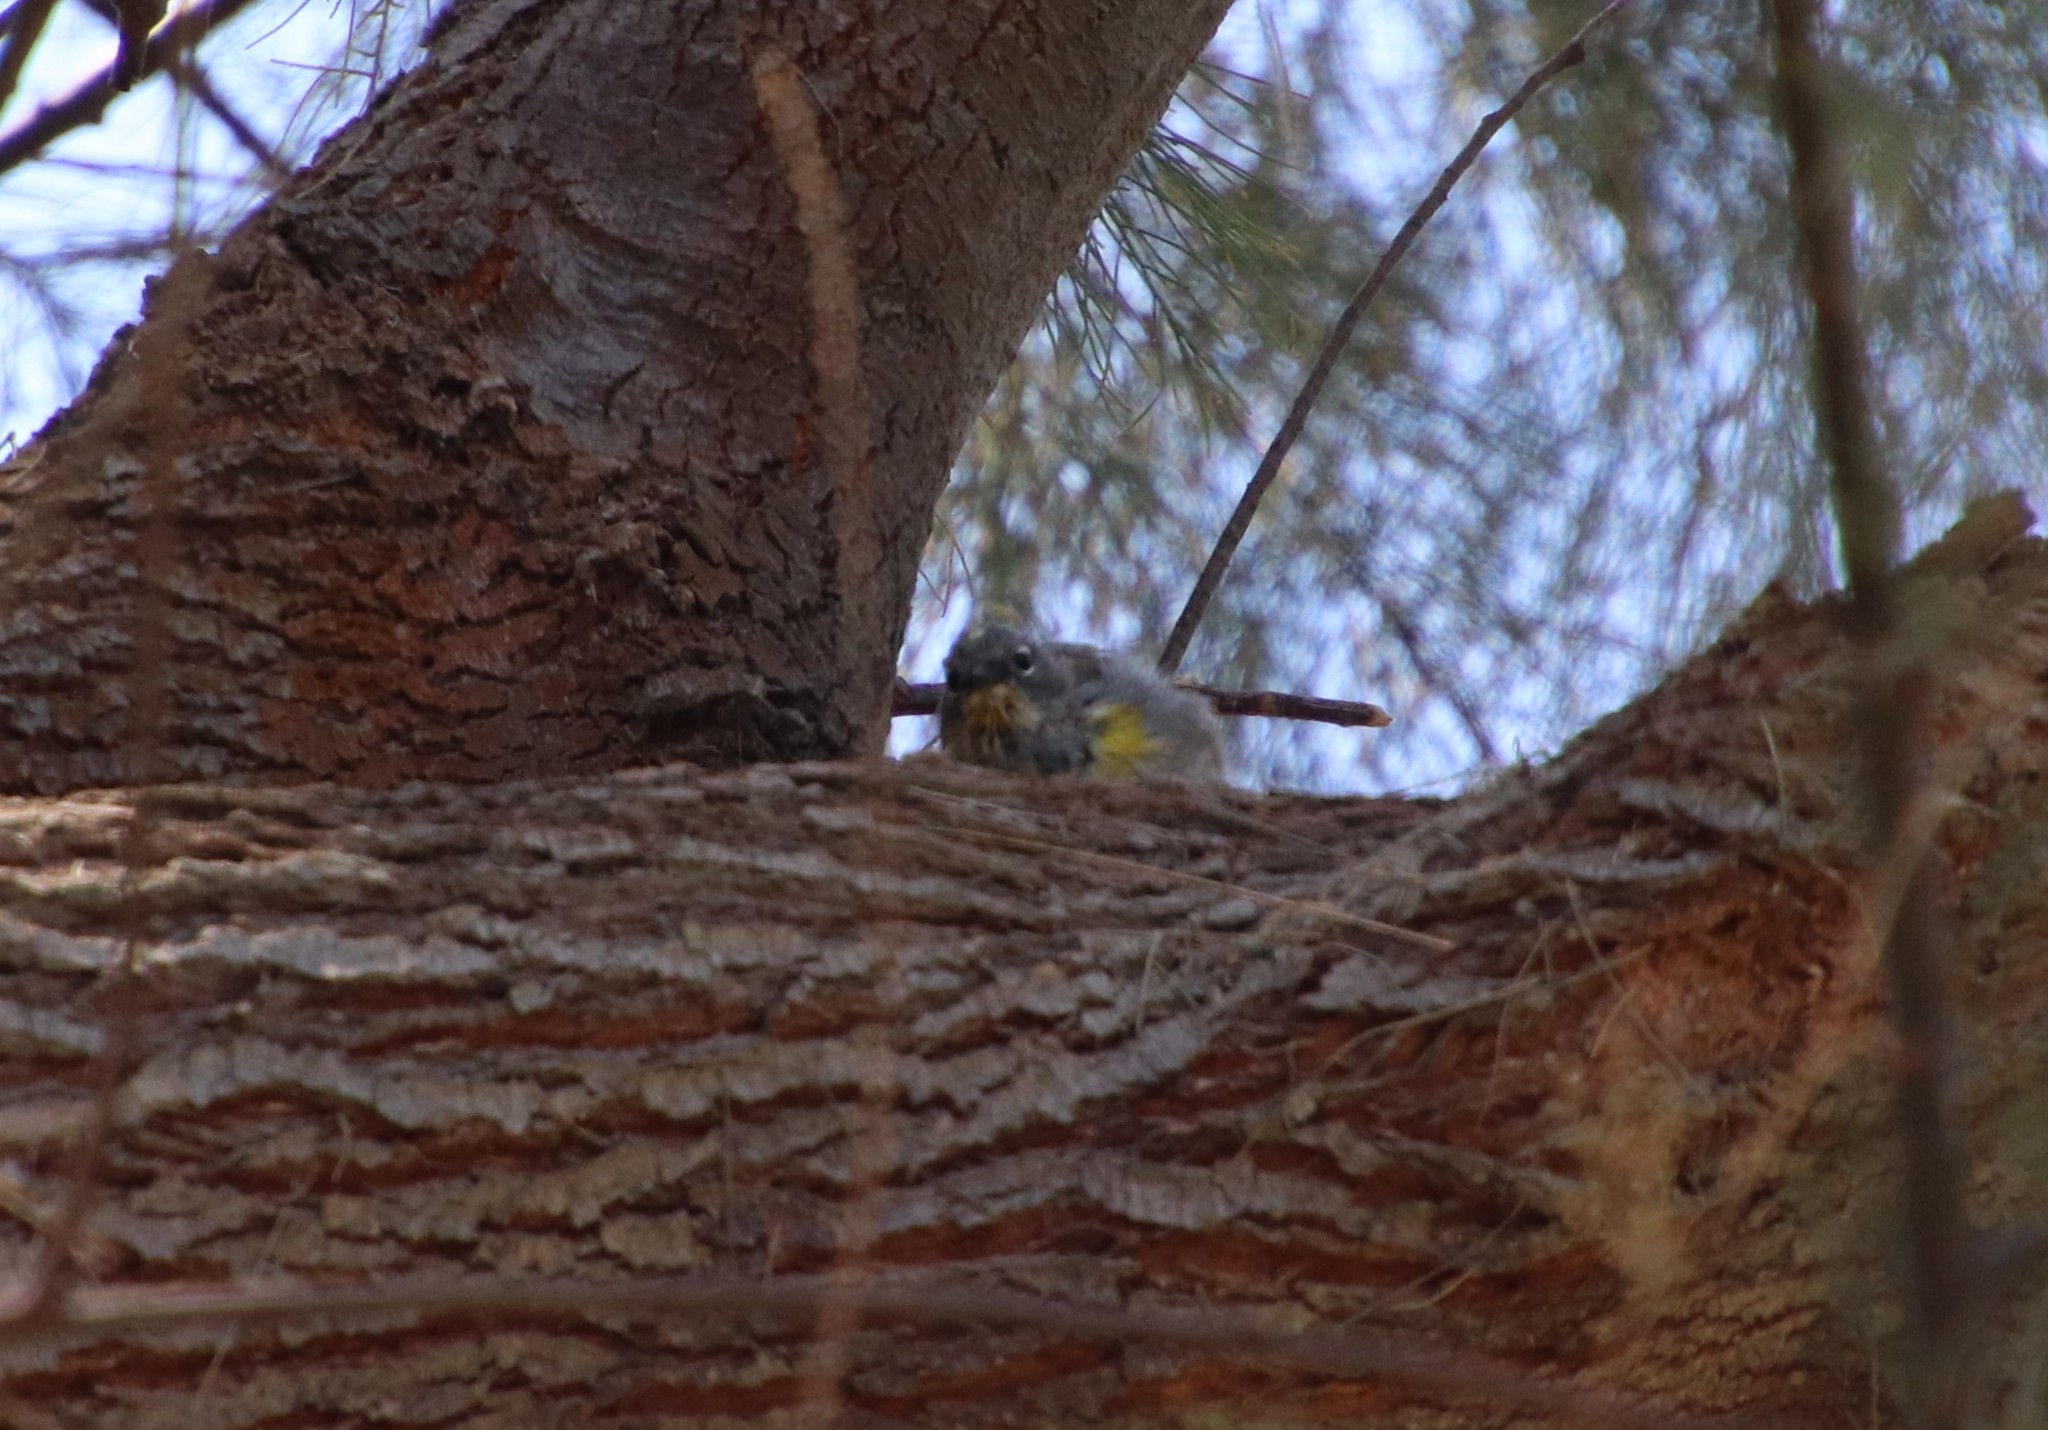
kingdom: Animalia
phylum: Chordata
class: Aves
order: Passeriformes
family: Parulidae
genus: Setophaga
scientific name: Setophaga coronata
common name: Myrtle warbler
